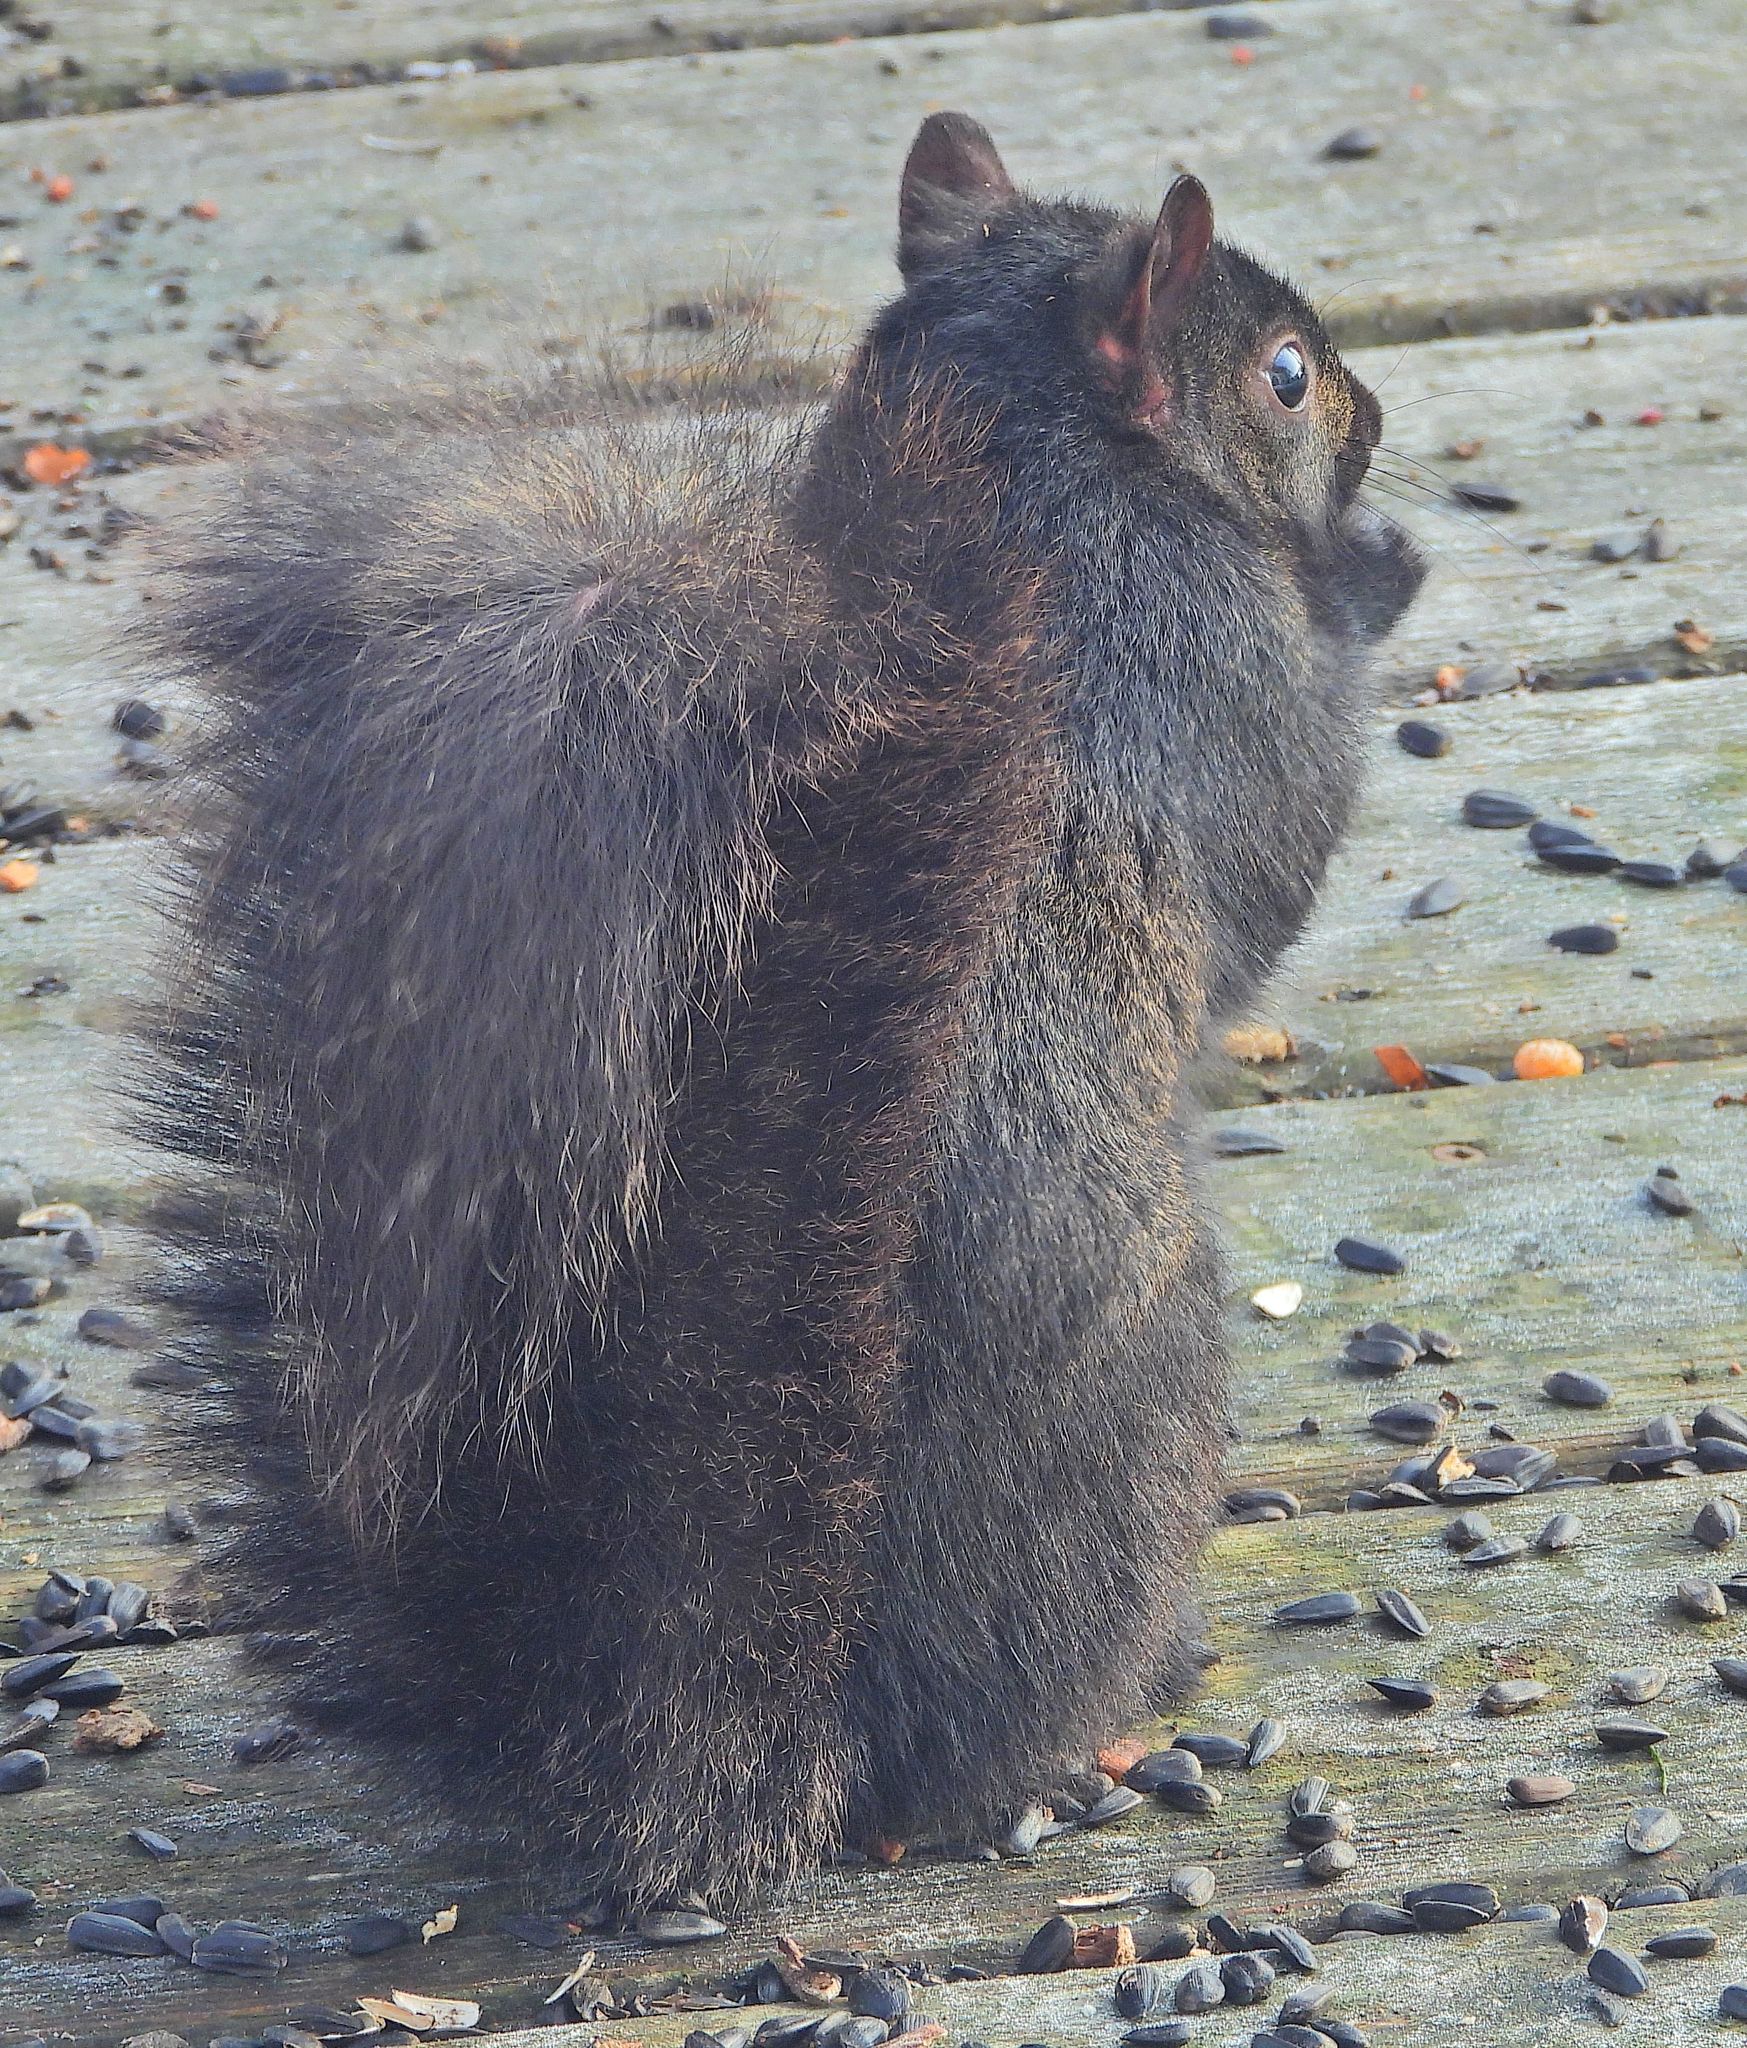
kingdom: Animalia
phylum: Chordata
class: Mammalia
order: Rodentia
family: Sciuridae
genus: Sciurus
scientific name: Sciurus carolinensis
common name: Eastern gray squirrel
